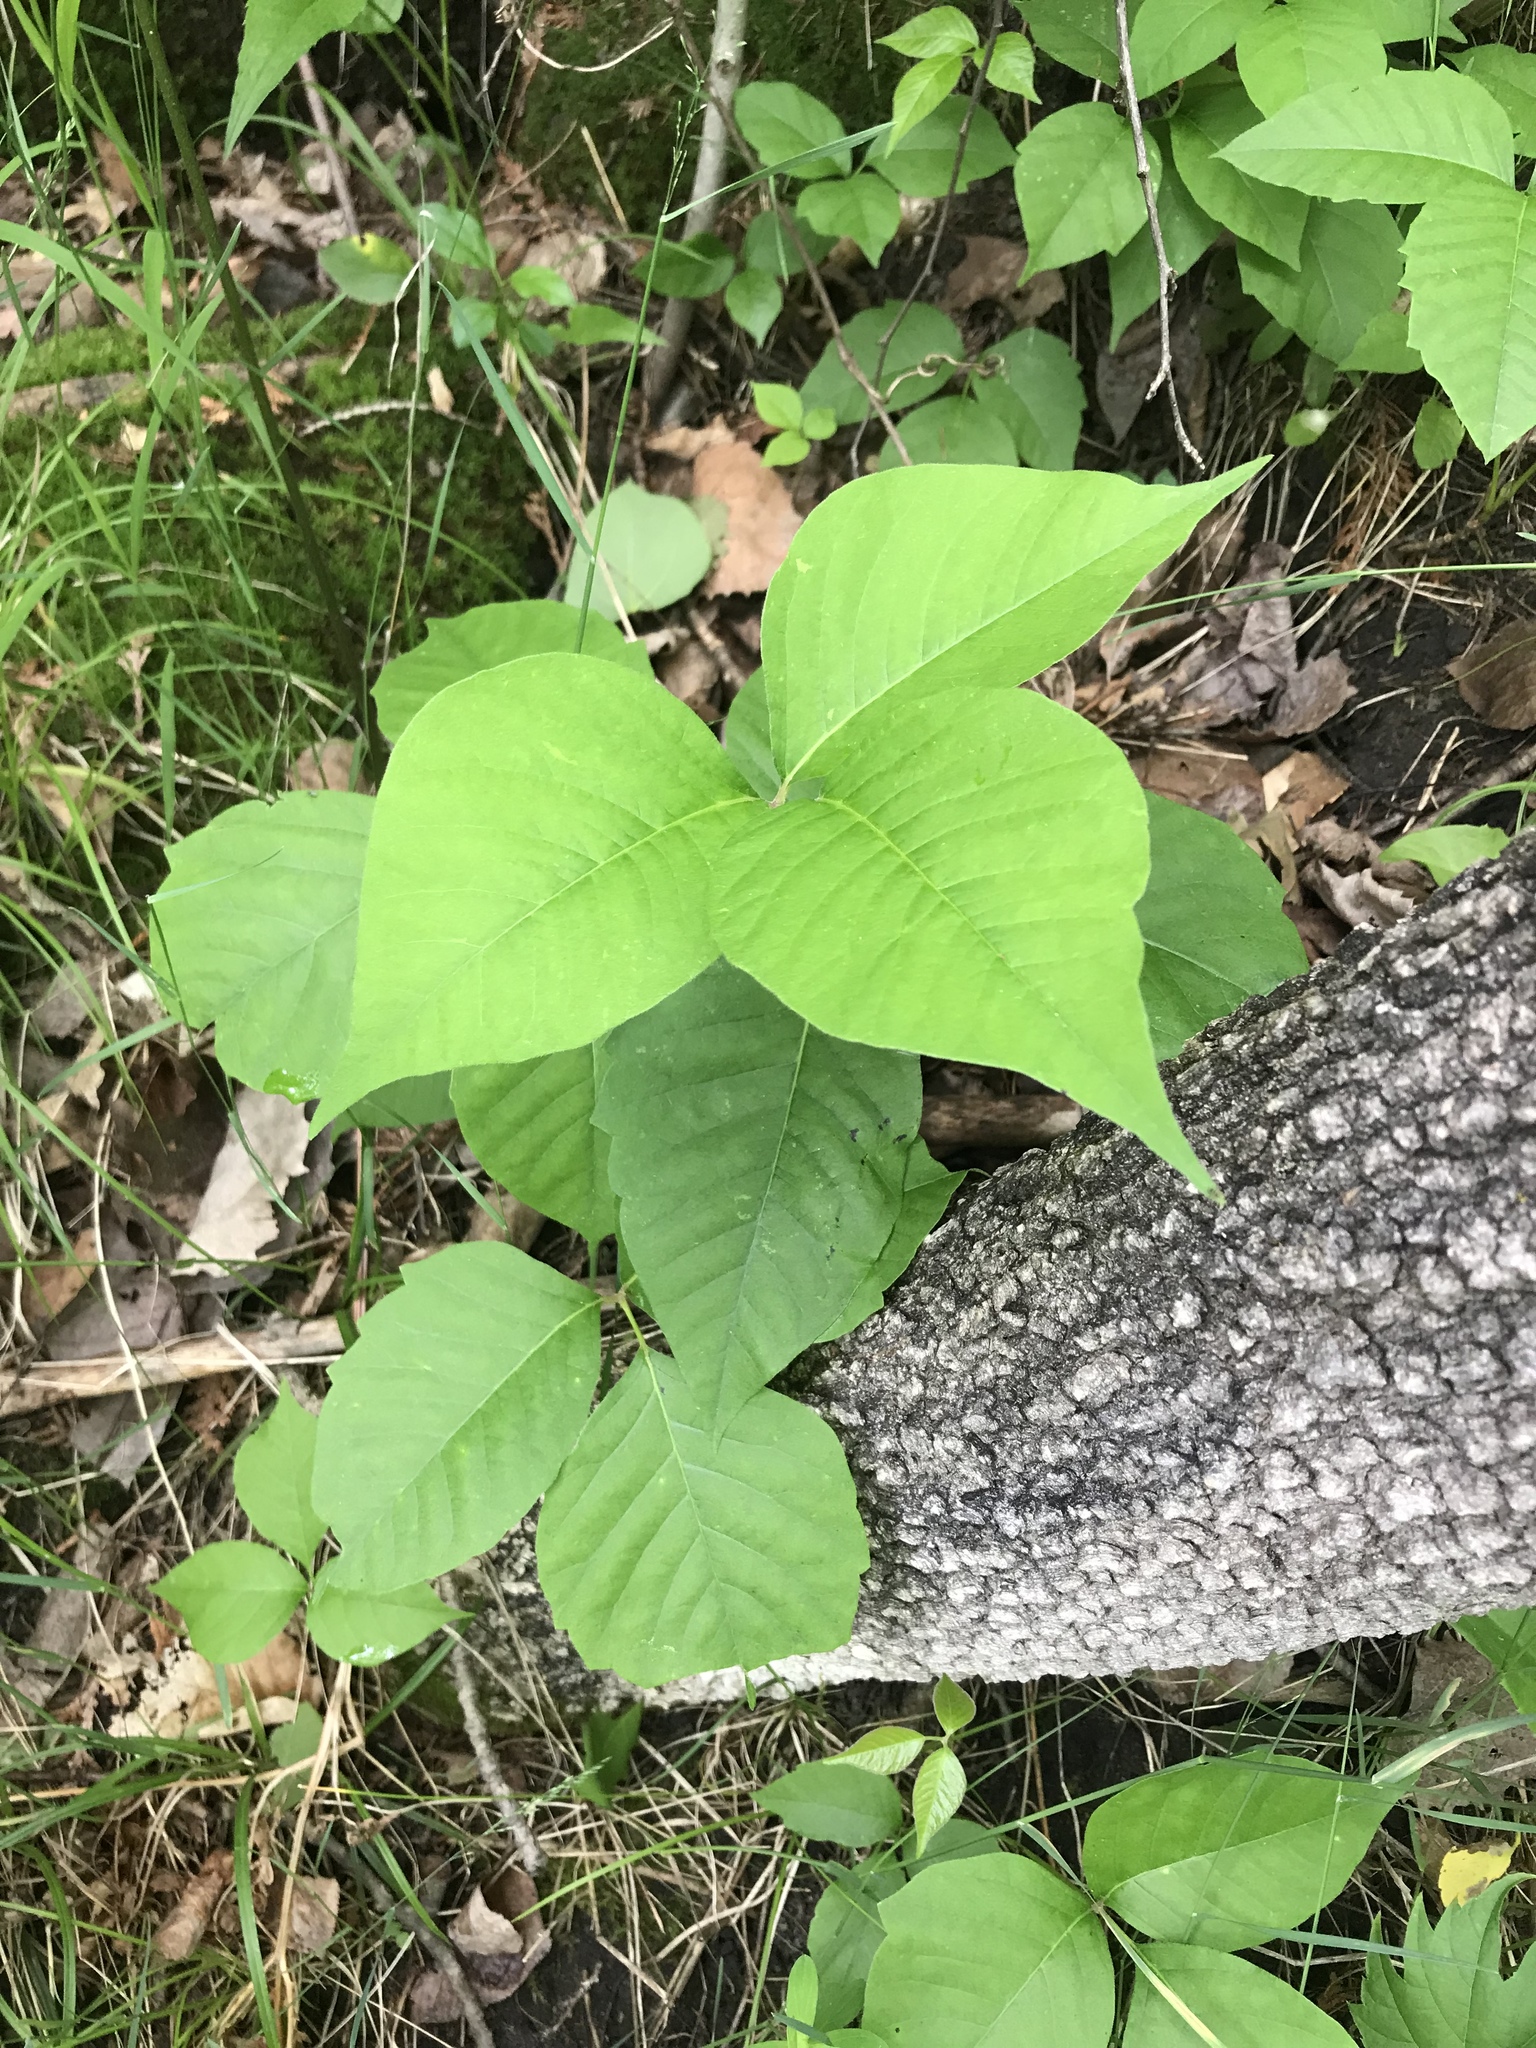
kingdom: Plantae
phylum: Tracheophyta
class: Magnoliopsida
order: Sapindales
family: Anacardiaceae
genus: Toxicodendron
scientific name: Toxicodendron rydbergii
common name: Rydberg's poison-ivy
